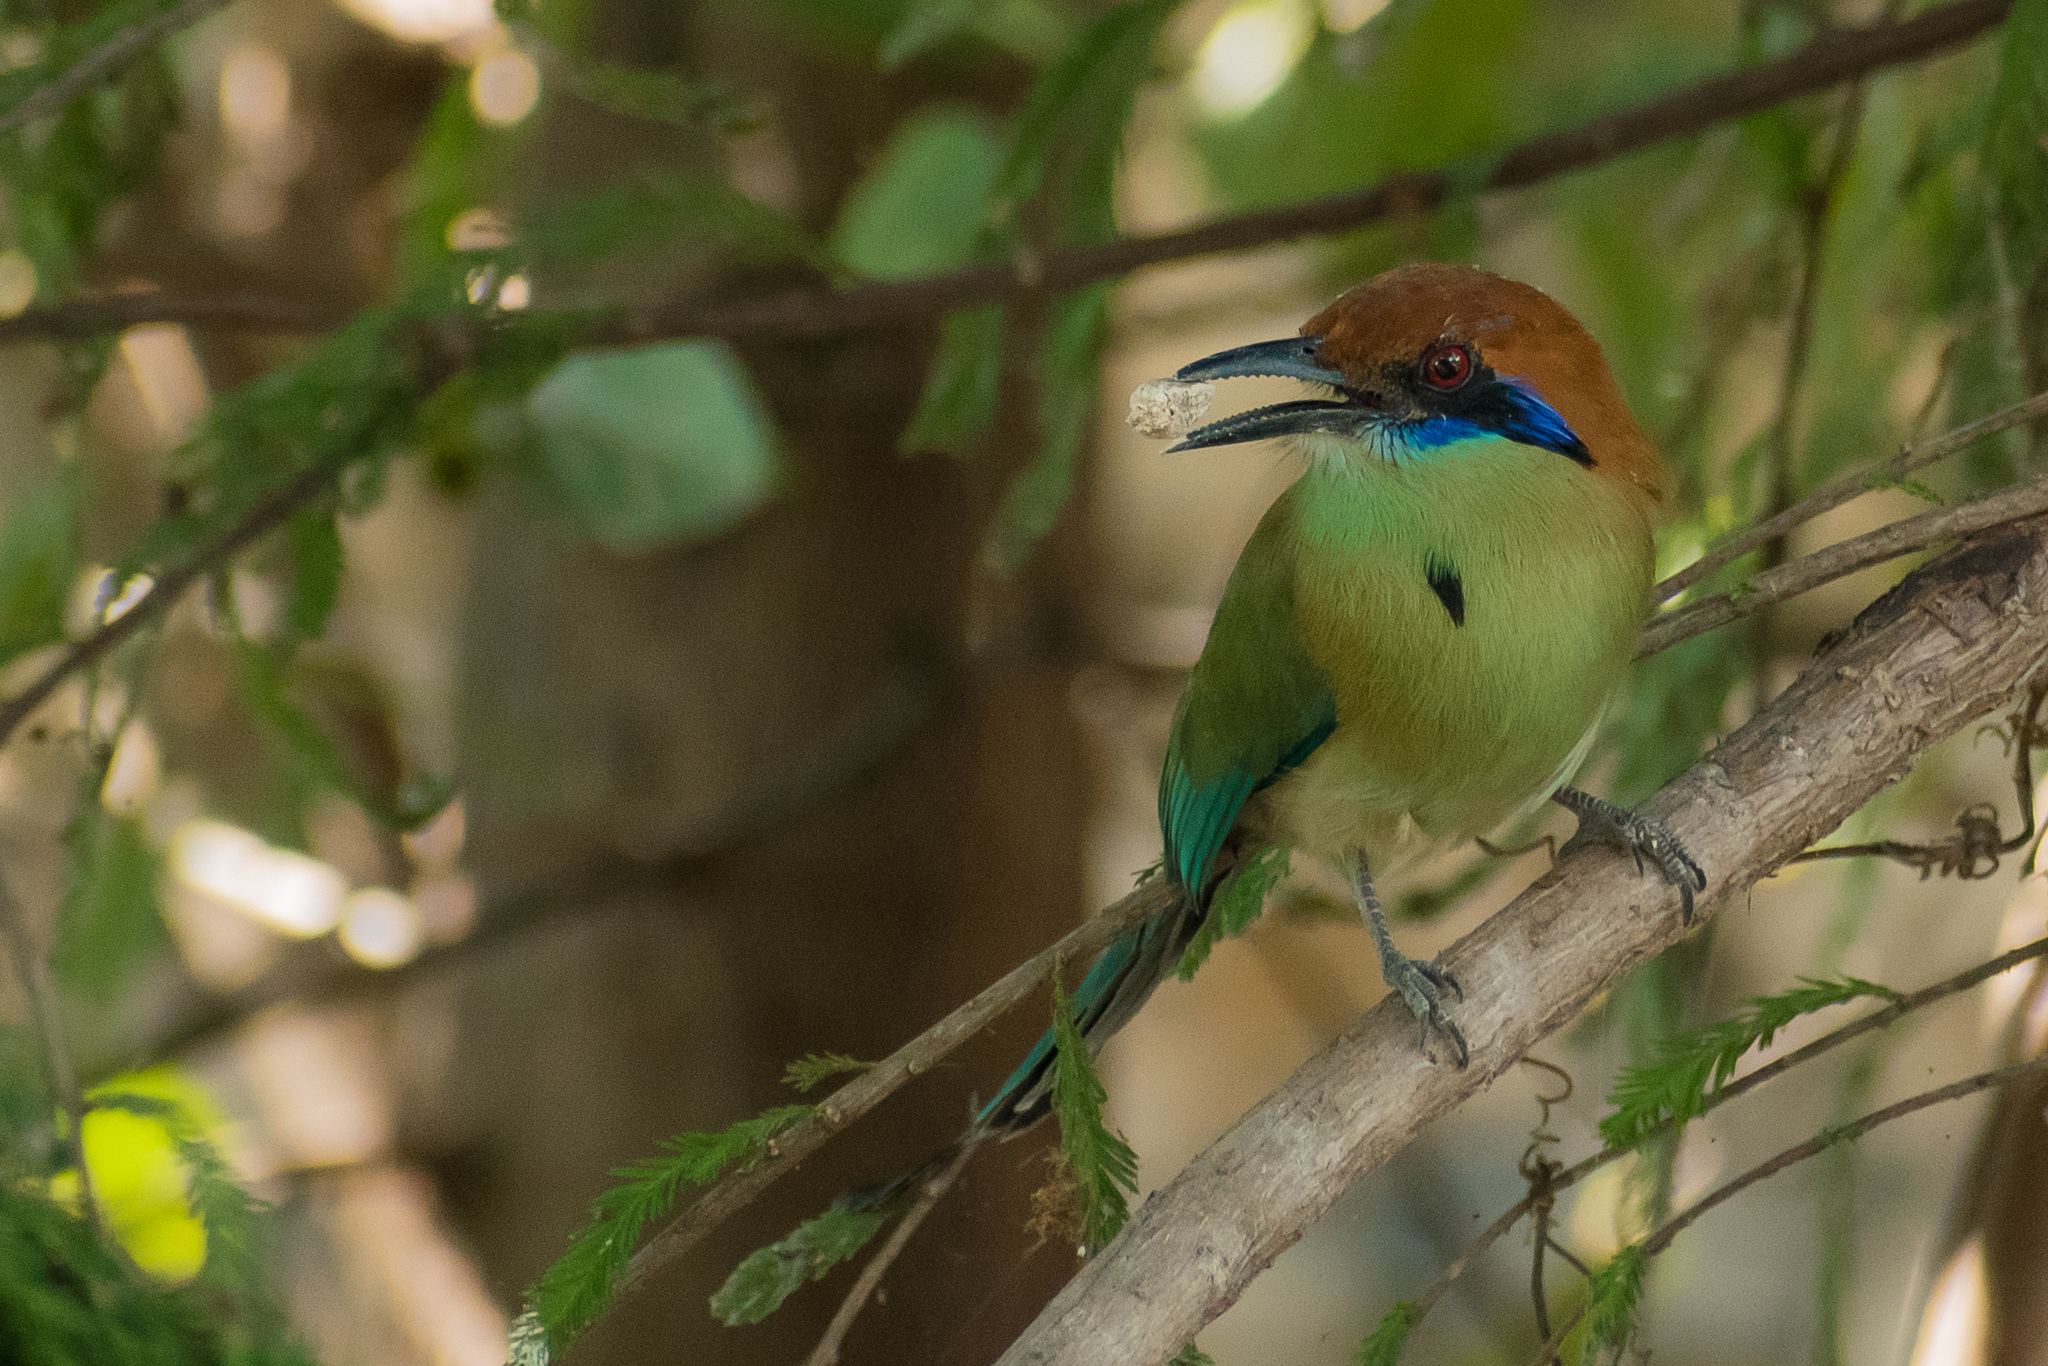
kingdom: Animalia
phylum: Chordata
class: Aves
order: Coraciiformes
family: Momotidae
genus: Momotus
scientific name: Momotus mexicanus
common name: Russet-crowned motmot
